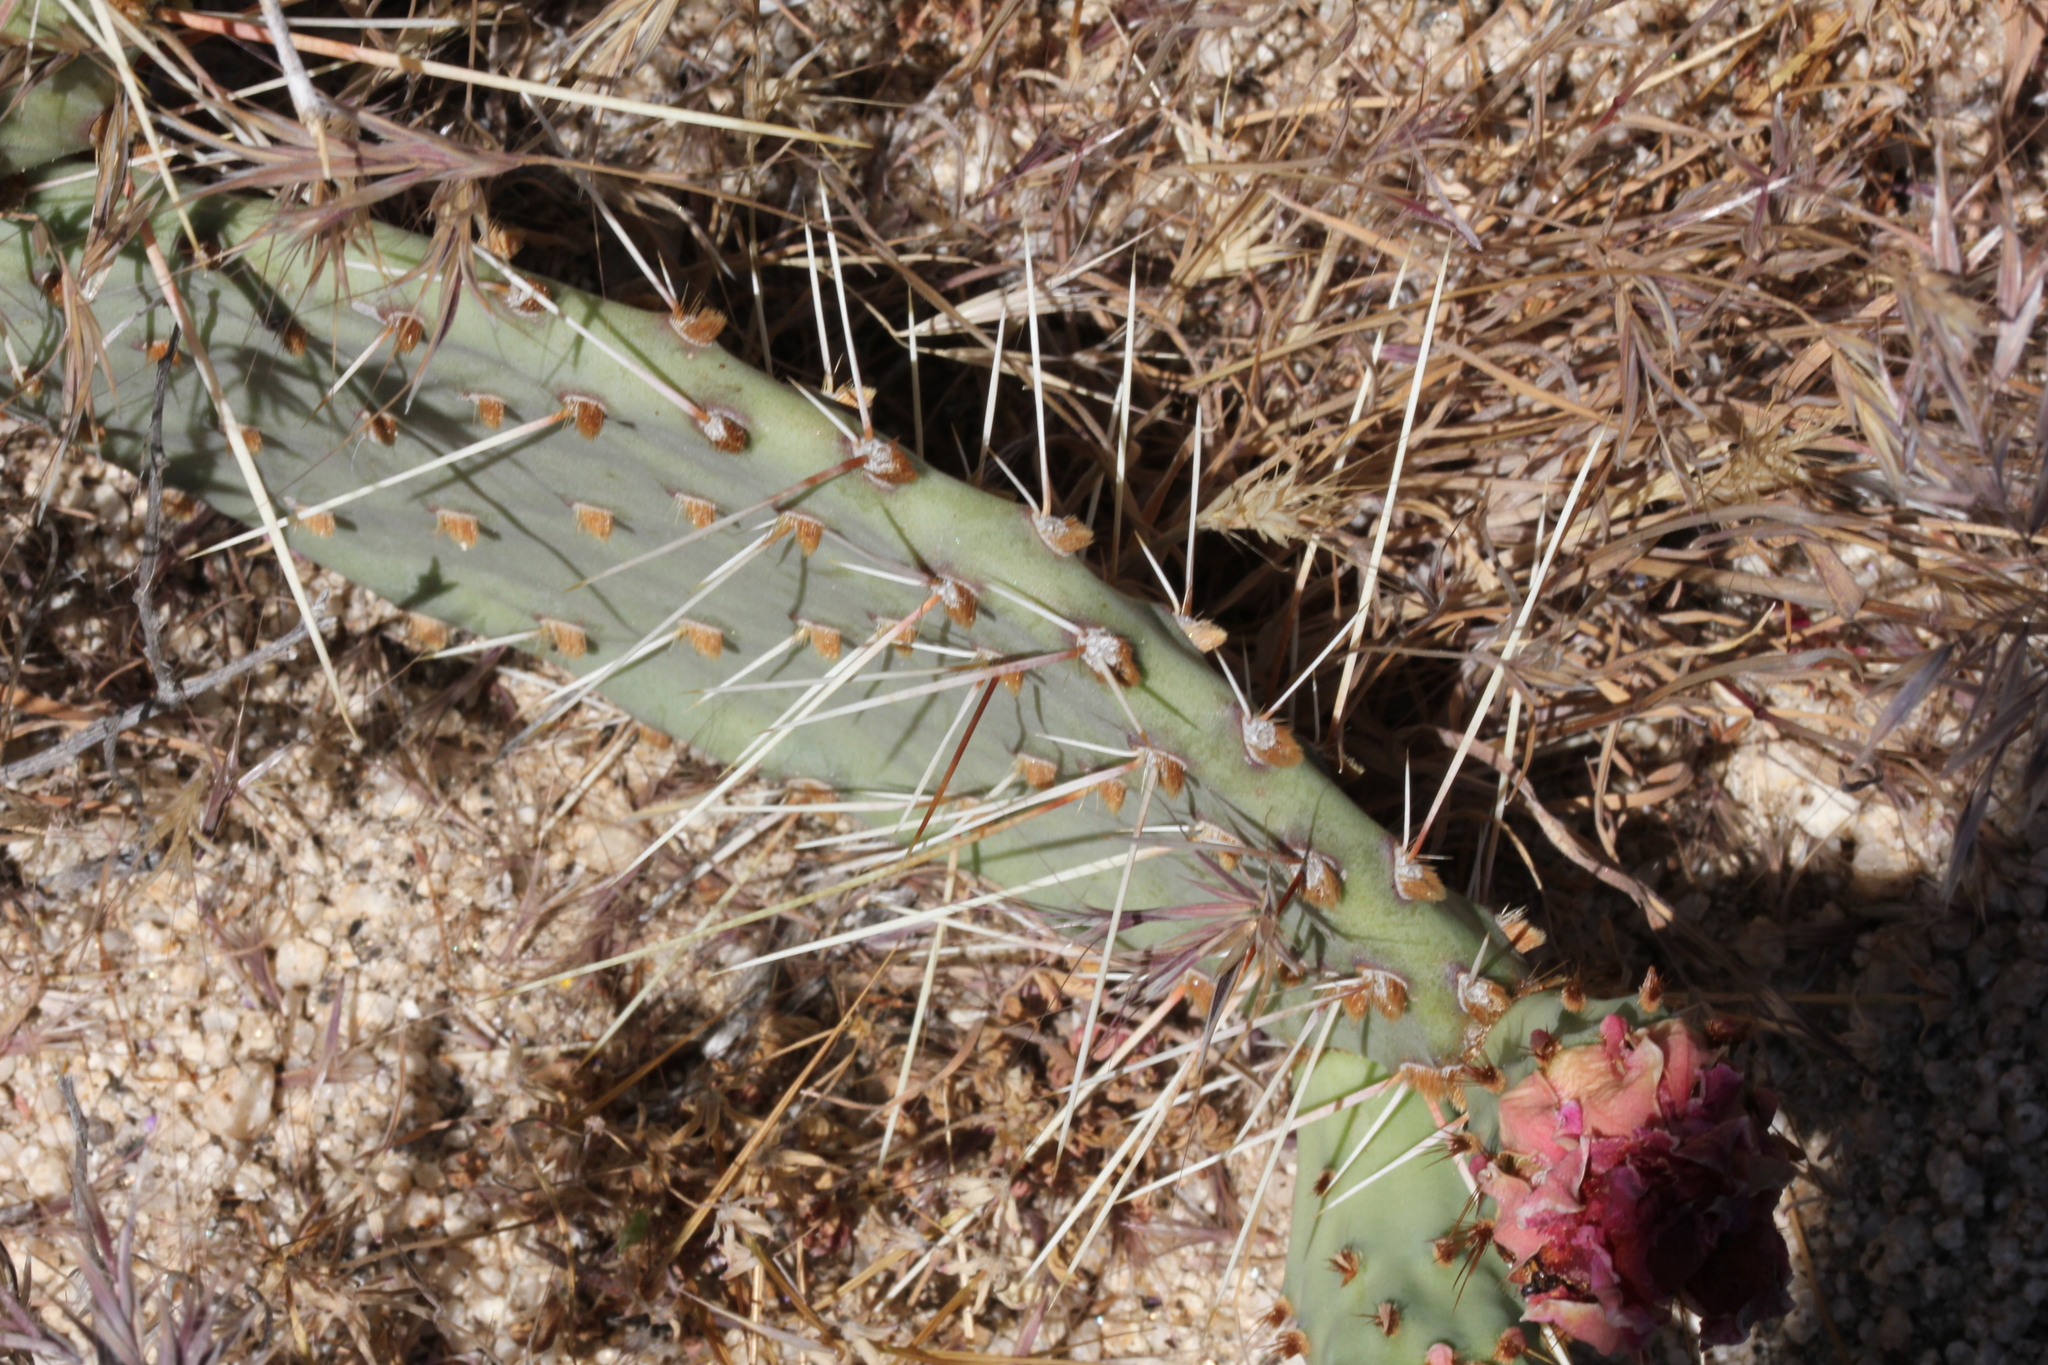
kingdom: Plantae
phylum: Tracheophyta
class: Magnoliopsida
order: Caryophyllales
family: Cactaceae
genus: Opuntia
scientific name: Opuntia phaeacantha
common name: New mexico prickly-pear
